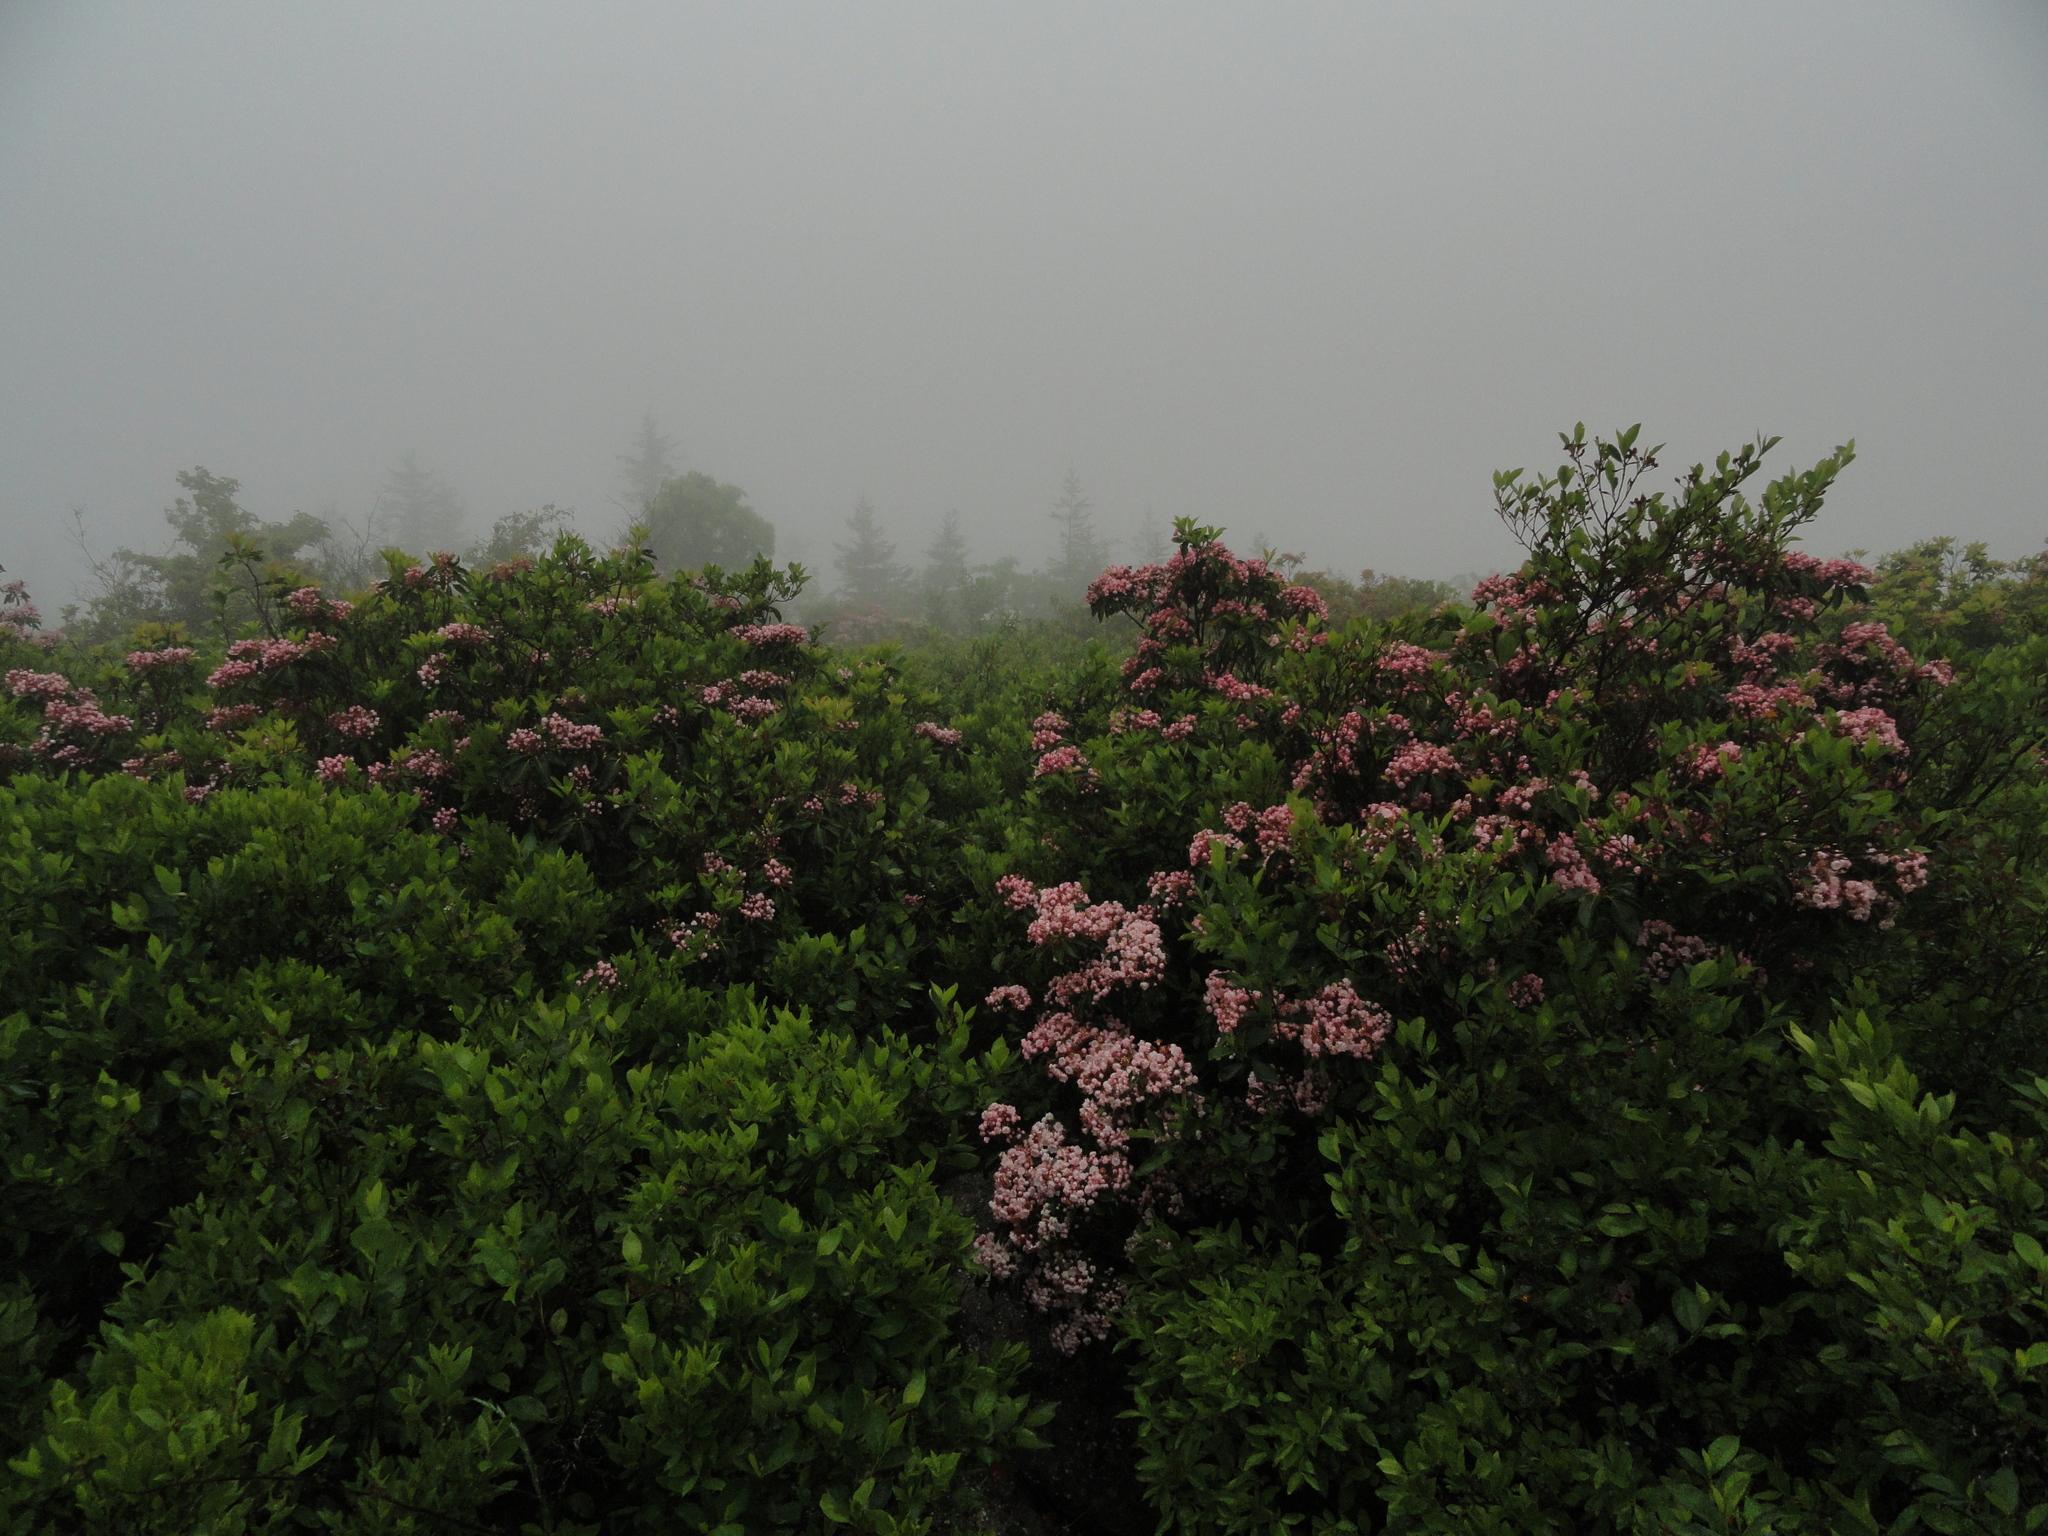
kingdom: Plantae
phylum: Tracheophyta
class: Magnoliopsida
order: Ericales
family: Ericaceae
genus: Kalmia
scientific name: Kalmia latifolia
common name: Mountain-laurel
